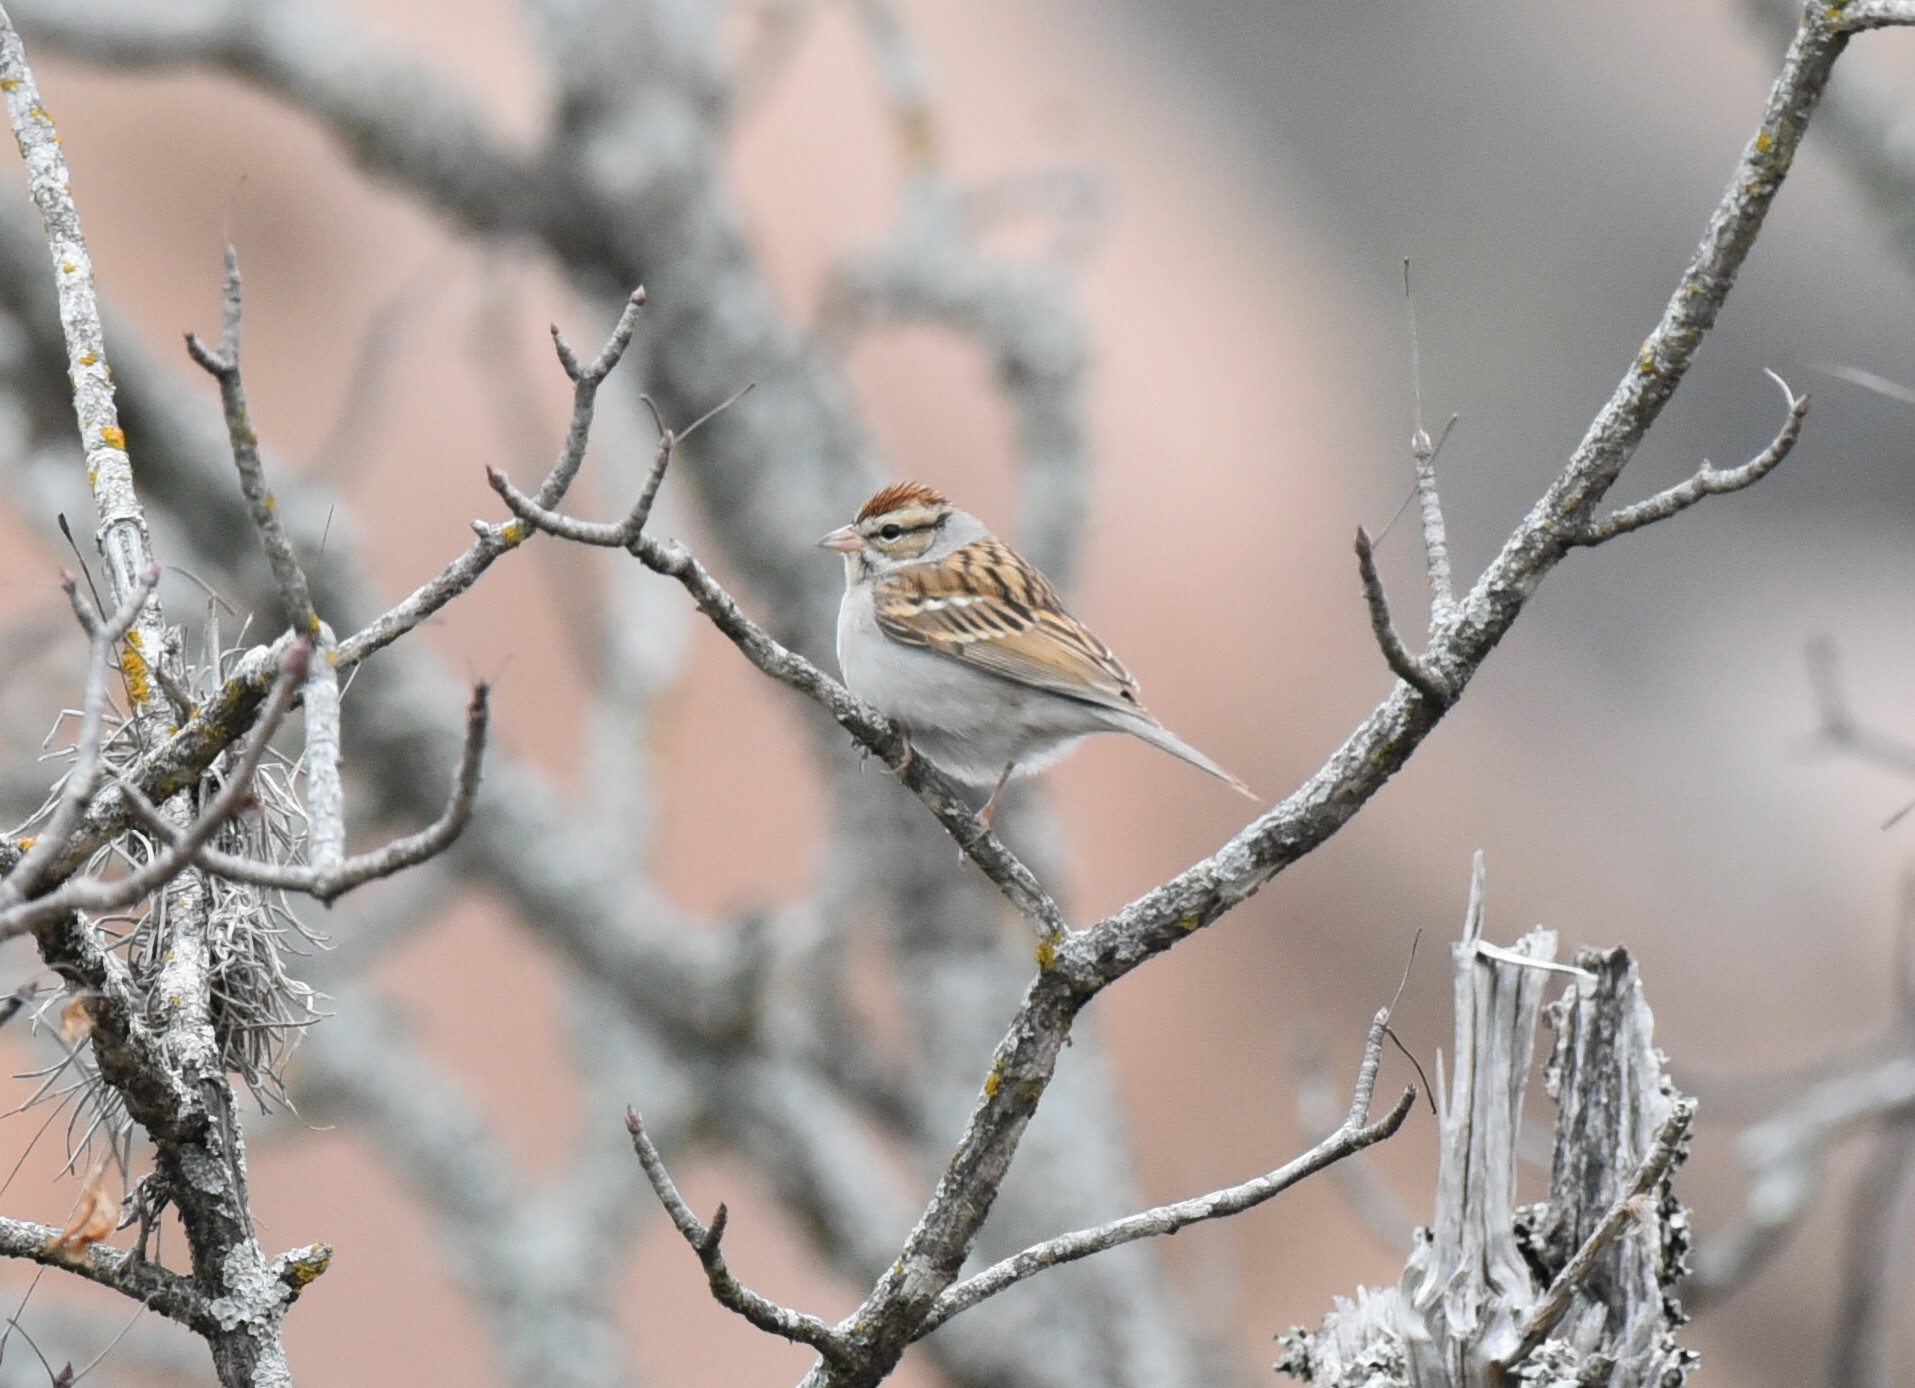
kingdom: Animalia
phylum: Chordata
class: Aves
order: Passeriformes
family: Passerellidae
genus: Spizella
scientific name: Spizella passerina
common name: Chipping sparrow
